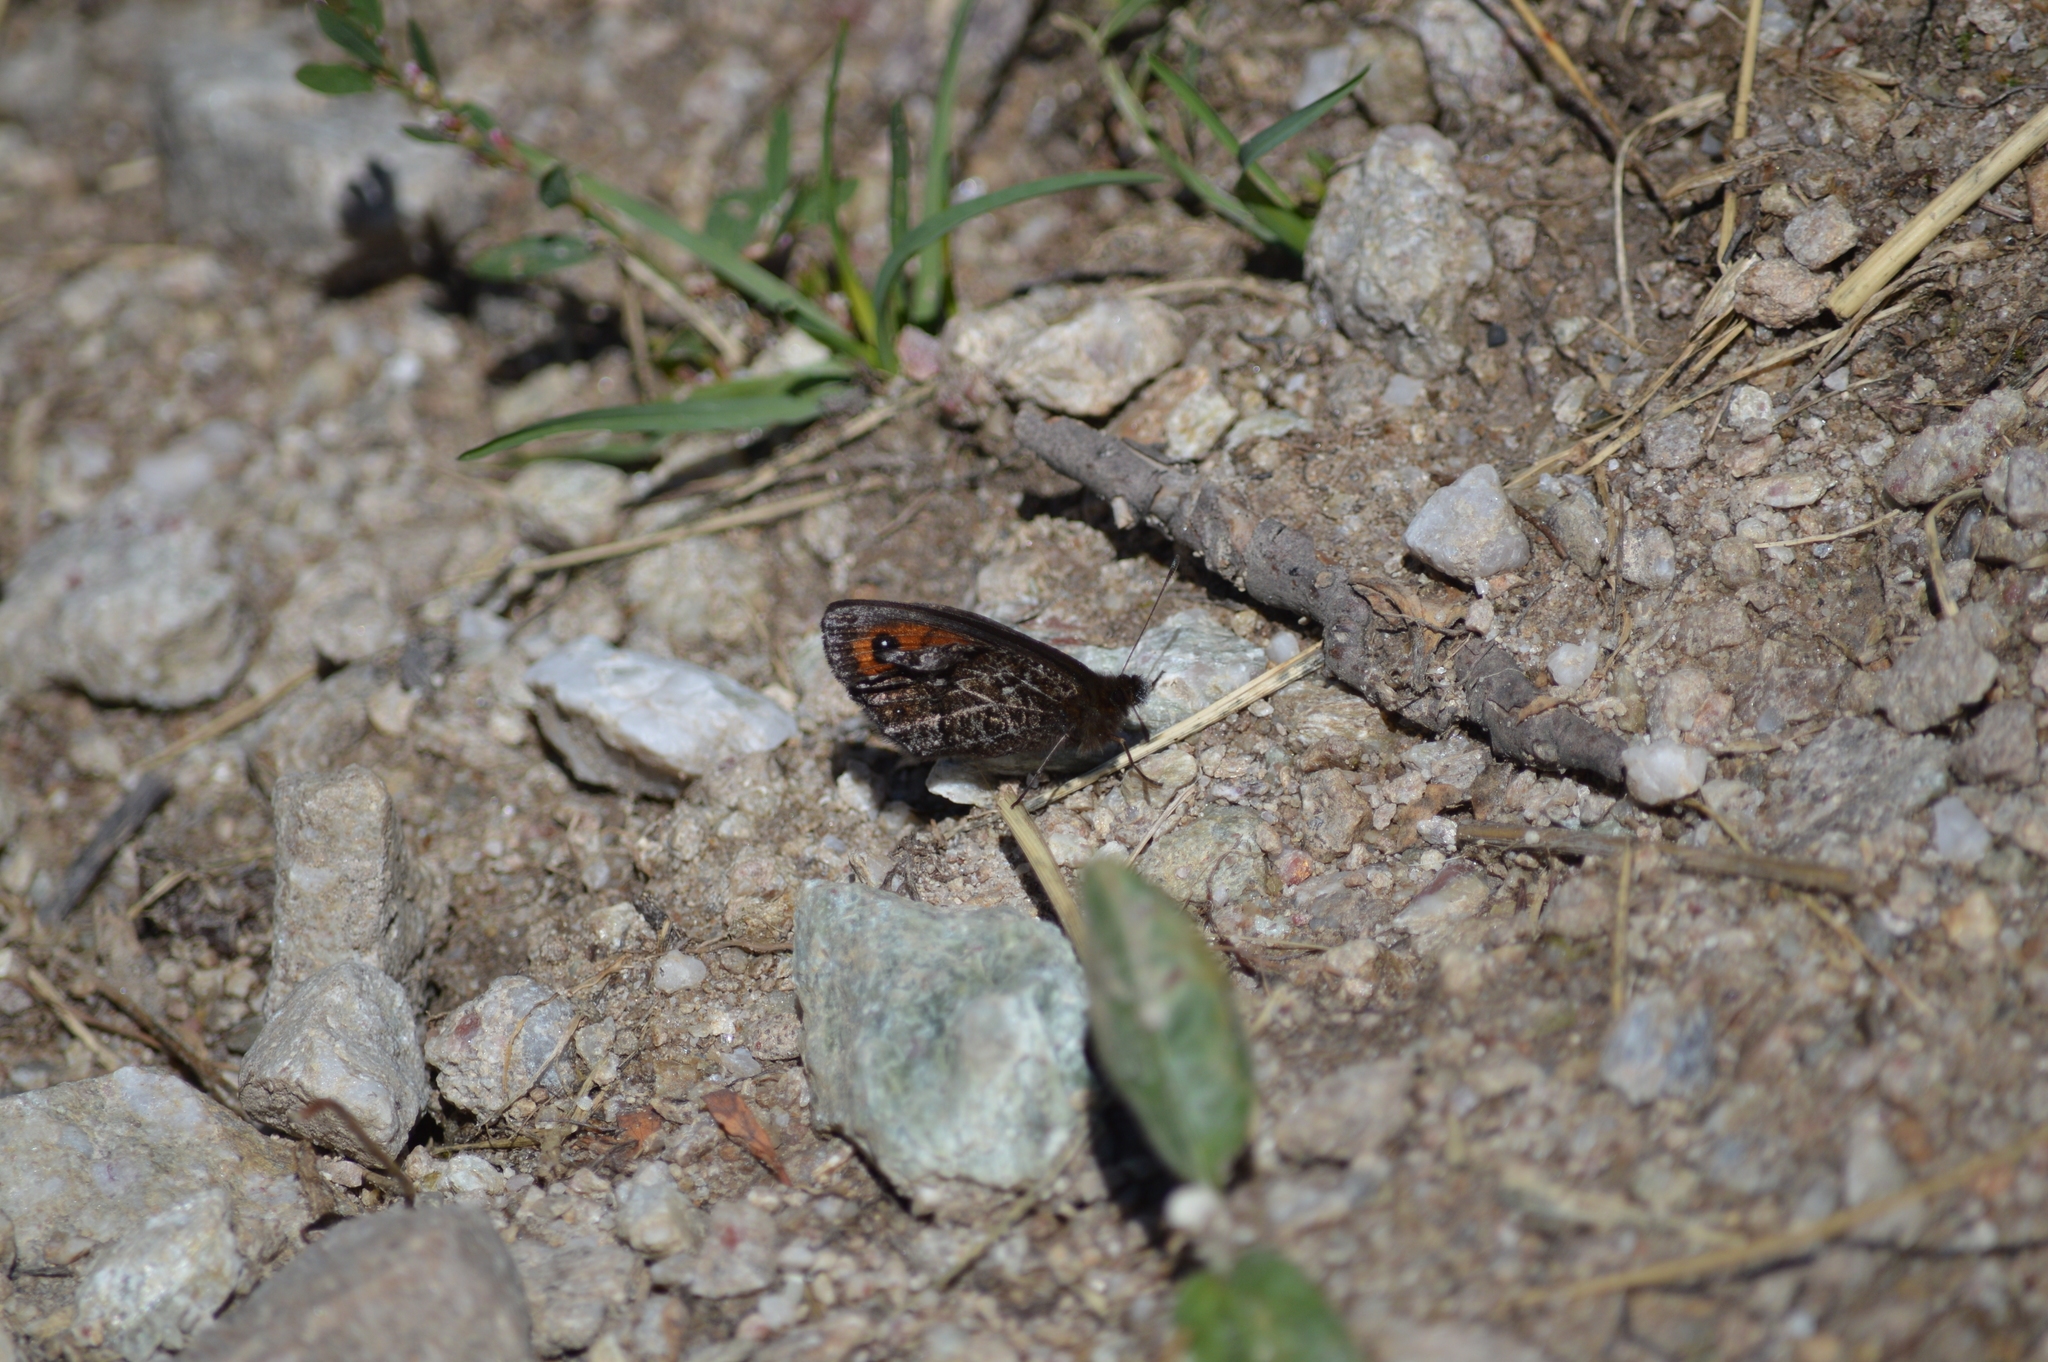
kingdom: Animalia
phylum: Arthropoda
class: Insecta
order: Lepidoptera
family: Nymphalidae
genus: Erebia
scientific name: Erebia montanus
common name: Marbled ringlet
